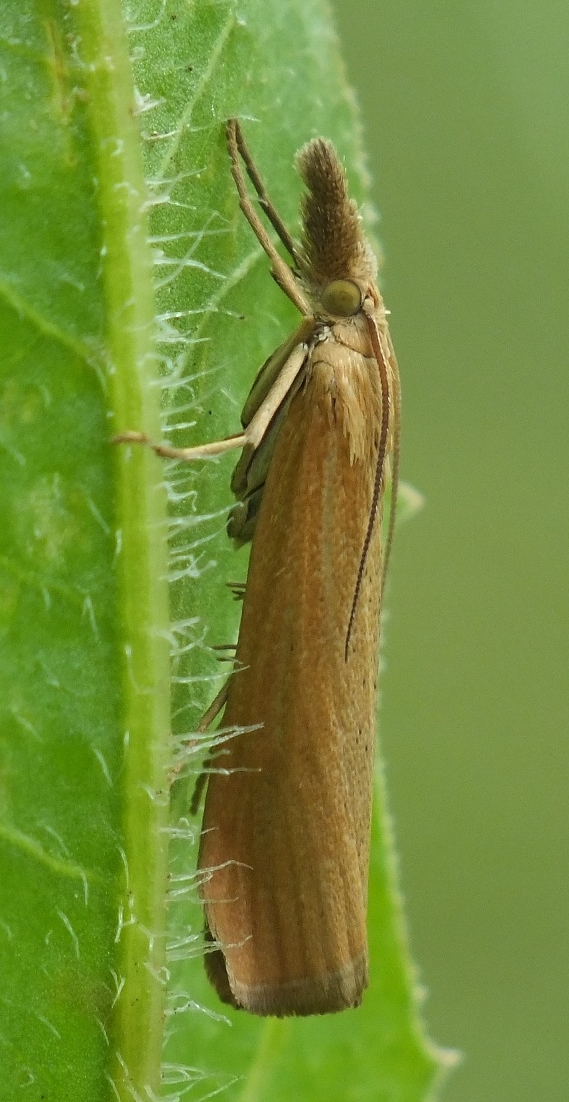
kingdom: Animalia
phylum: Arthropoda
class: Insecta
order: Lepidoptera
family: Crambidae
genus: Pediasia
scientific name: Pediasia luteella
